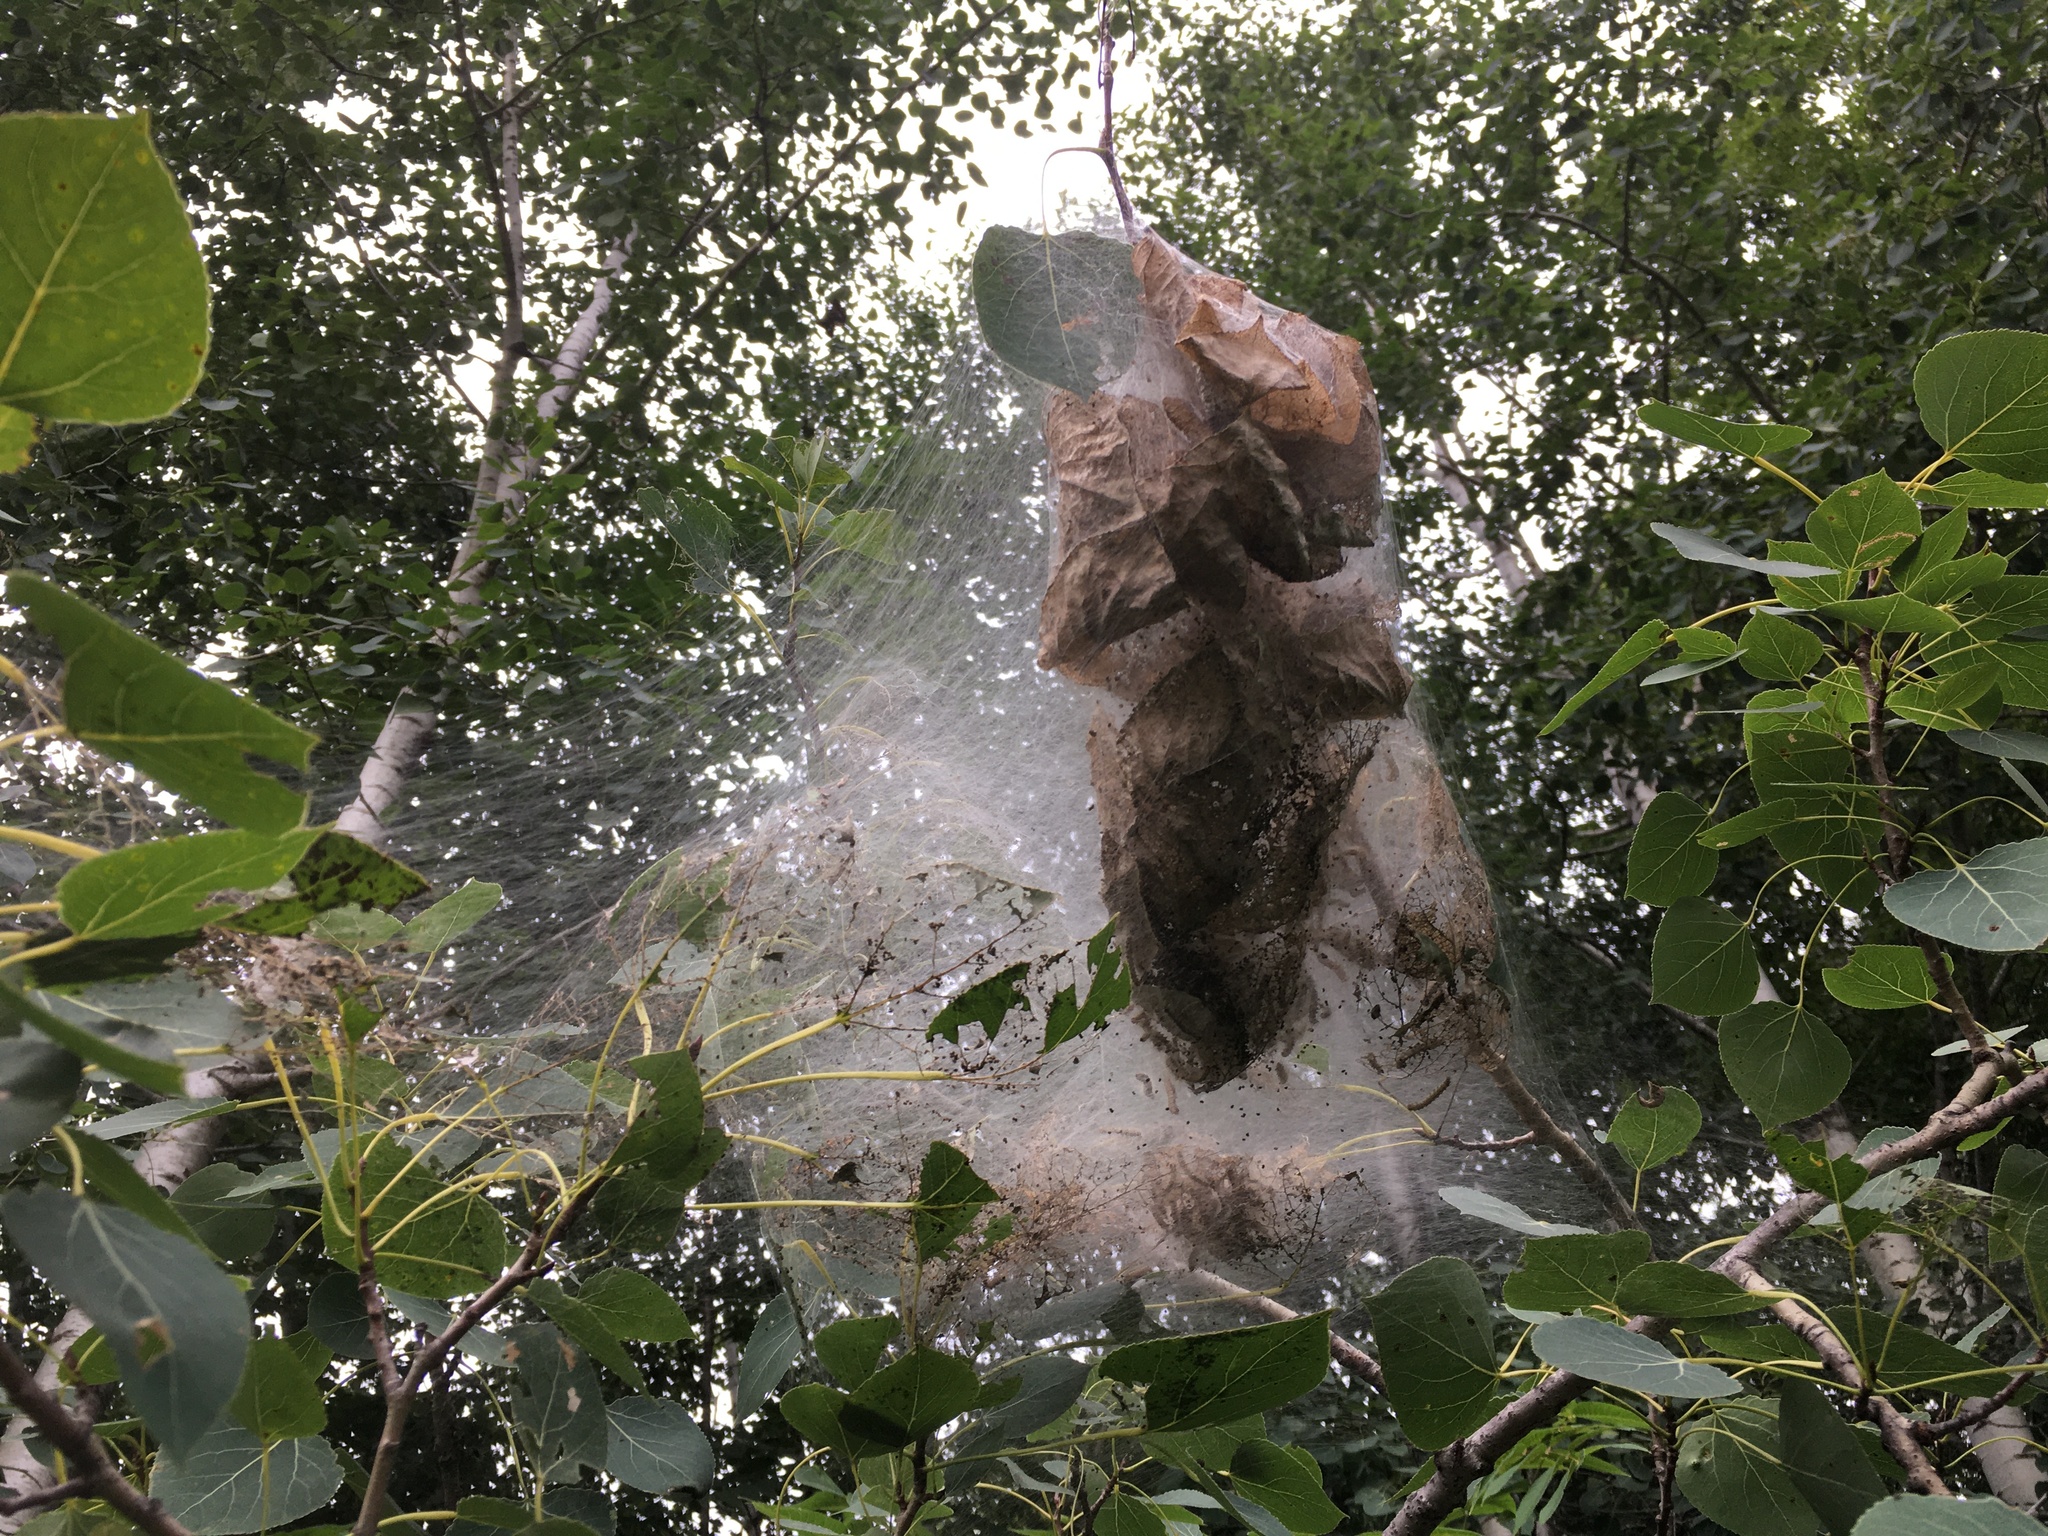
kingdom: Animalia
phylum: Arthropoda
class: Insecta
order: Lepidoptera
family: Erebidae
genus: Hyphantria
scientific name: Hyphantria cunea
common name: American white moth
